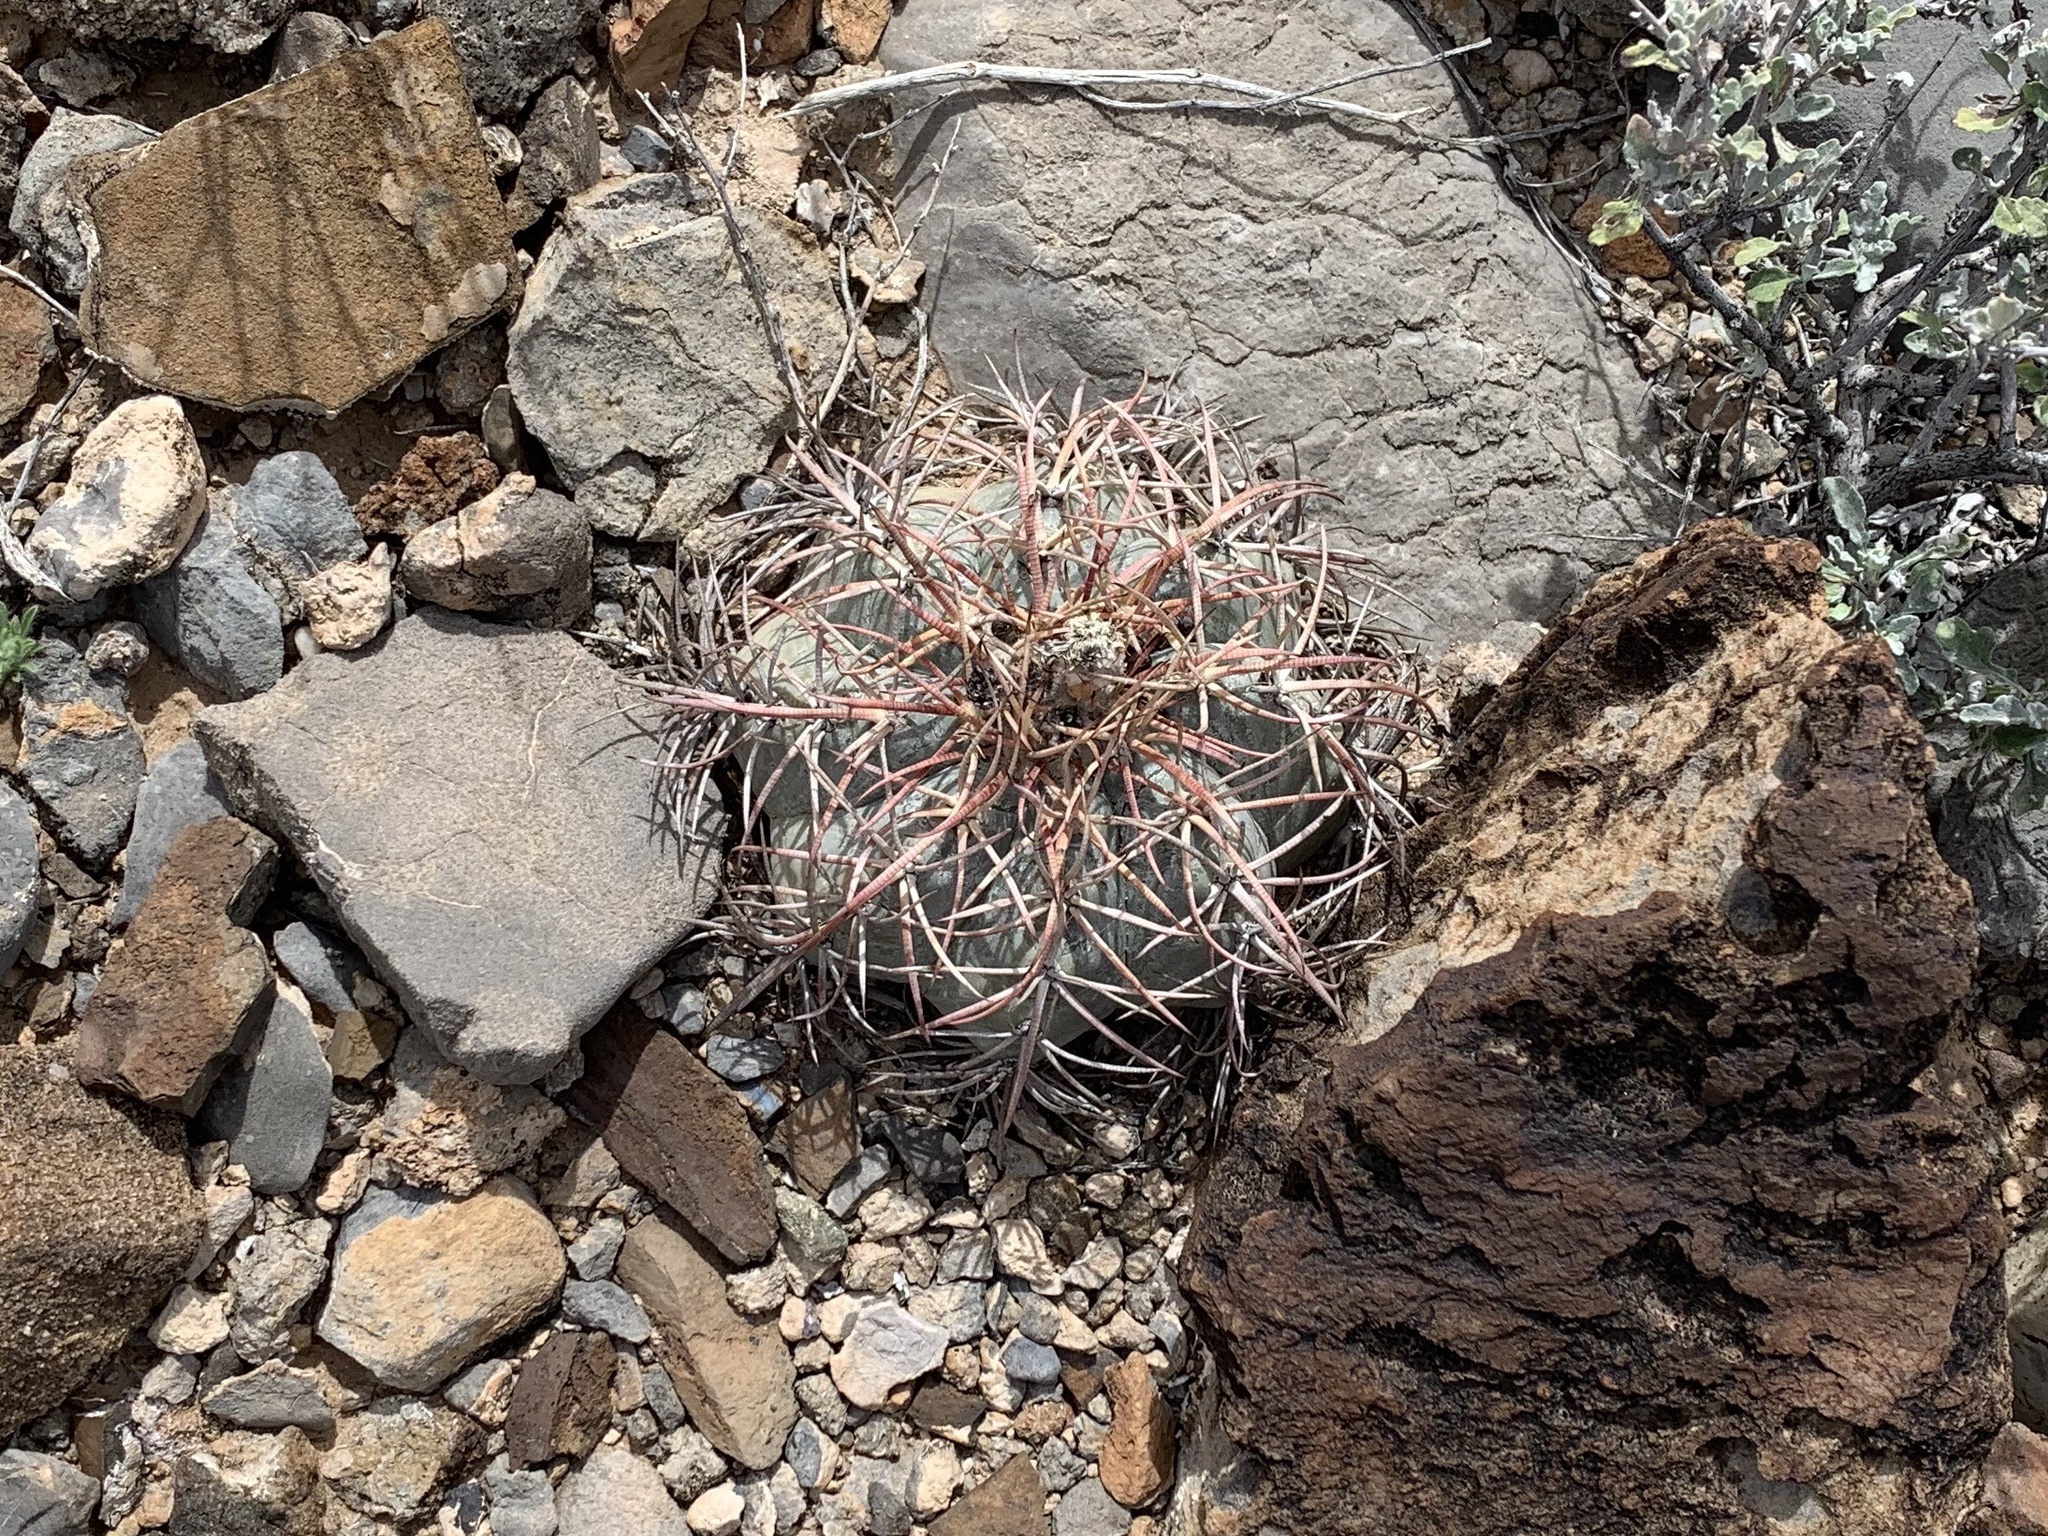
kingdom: Plantae
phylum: Tracheophyta
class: Magnoliopsida
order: Caryophyllales
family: Cactaceae
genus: Echinocactus
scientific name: Echinocactus horizonthalonius
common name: Devilshead
